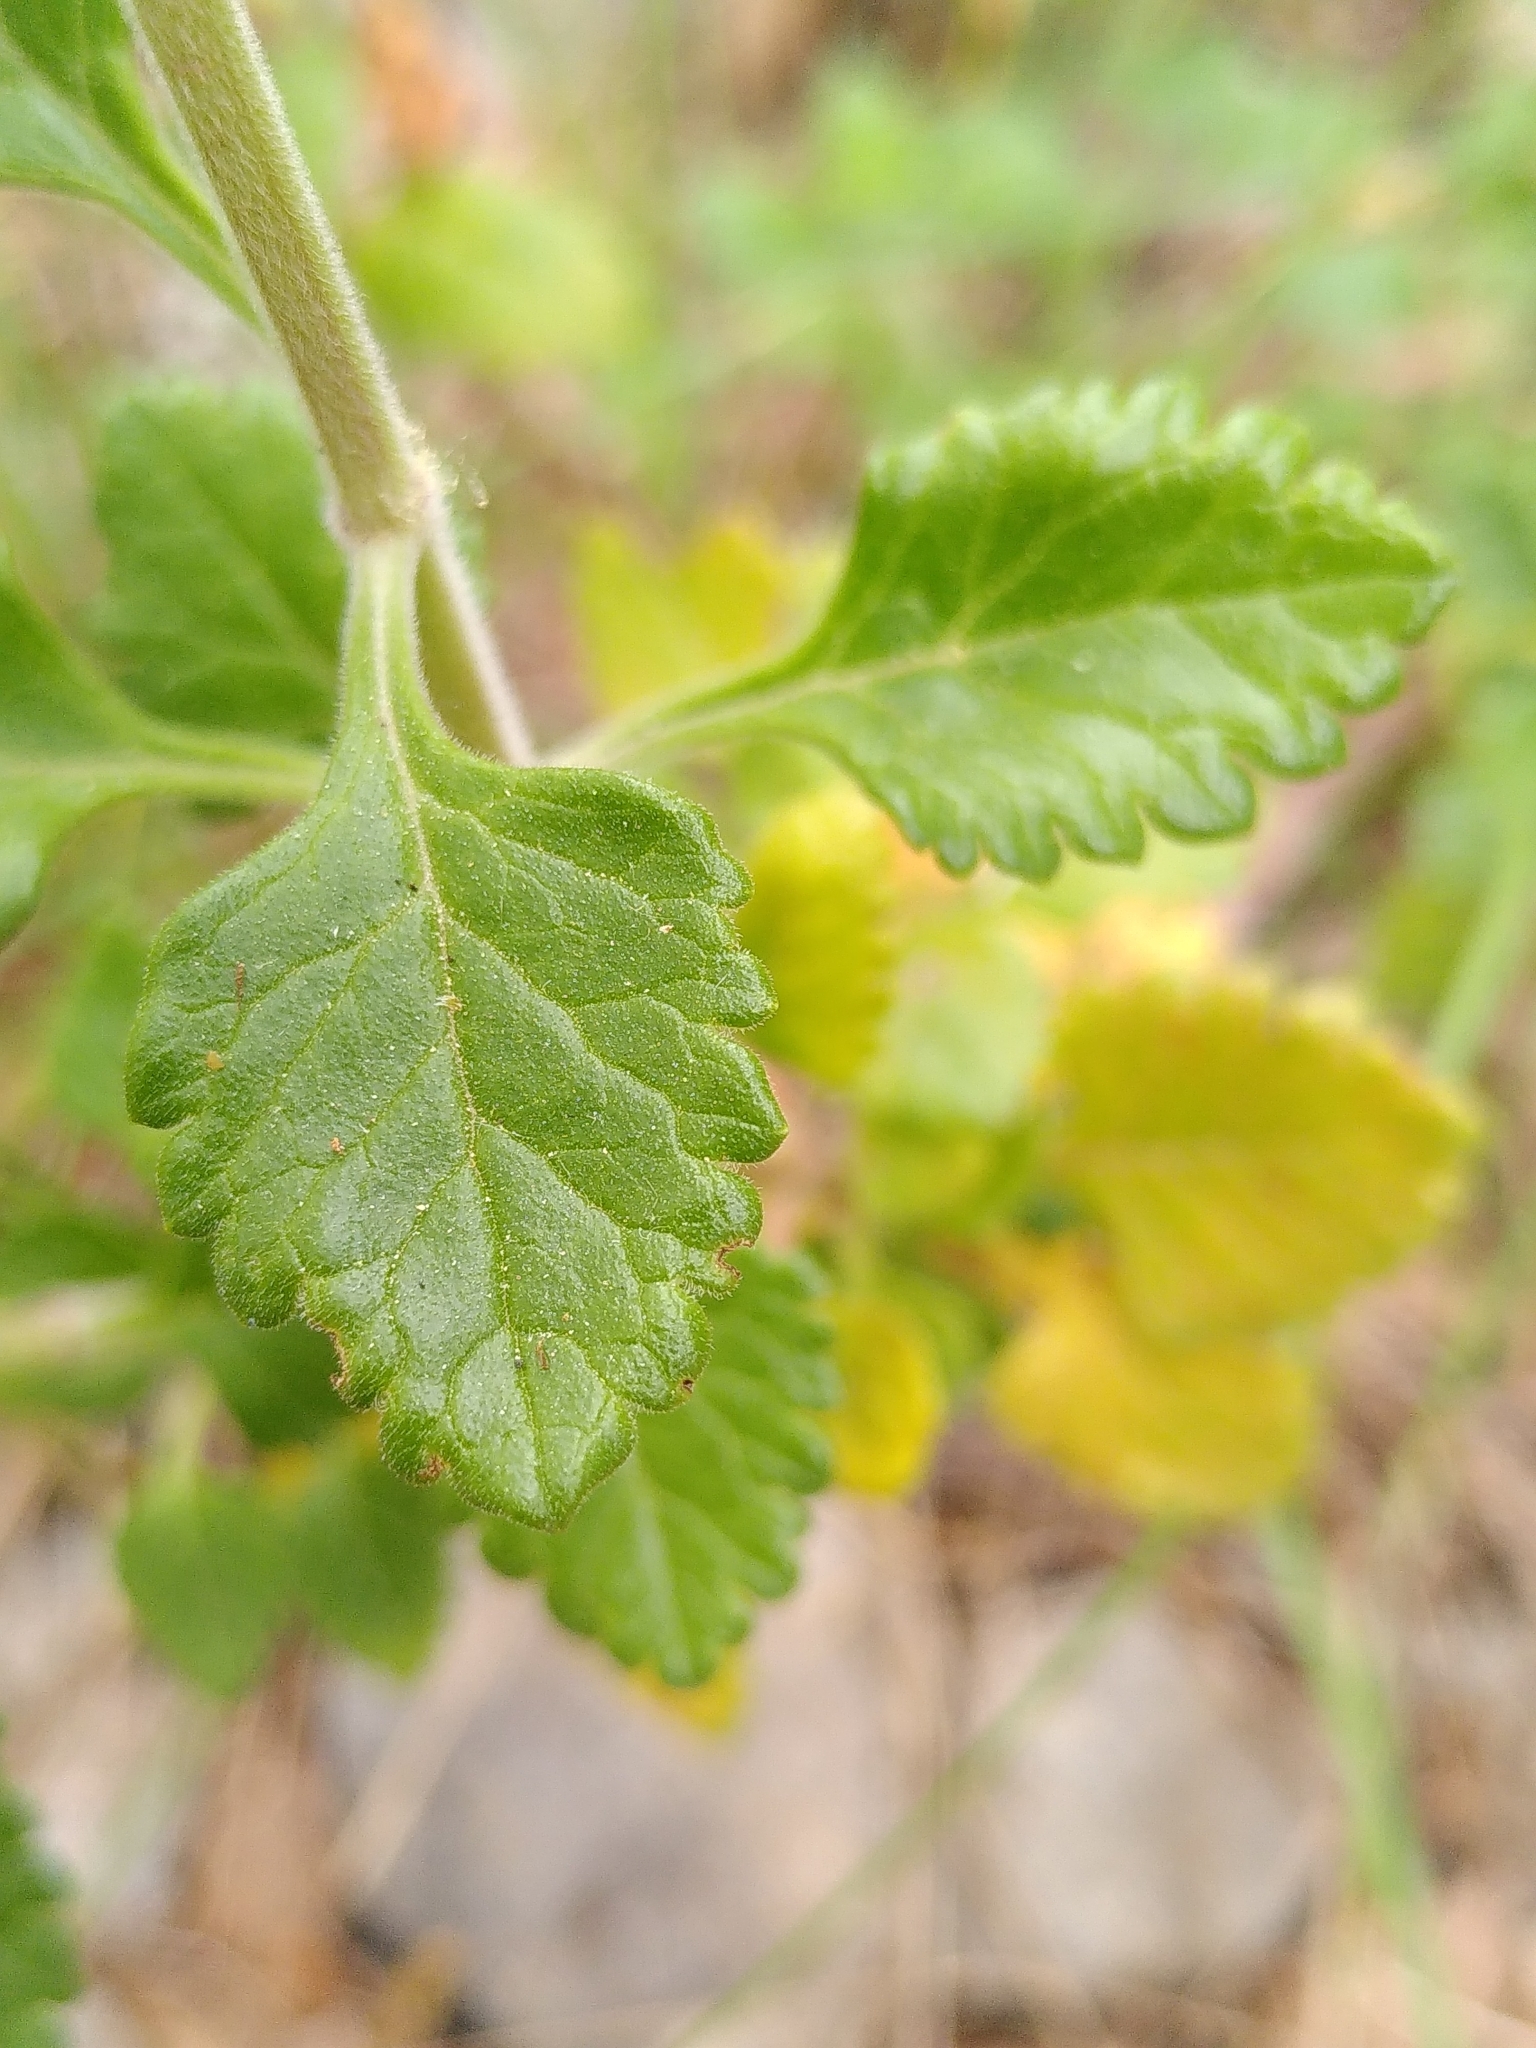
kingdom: Plantae
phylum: Tracheophyta
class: Magnoliopsida
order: Lamiales
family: Lamiaceae
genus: Teucrium
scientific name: Teucrium flavum
